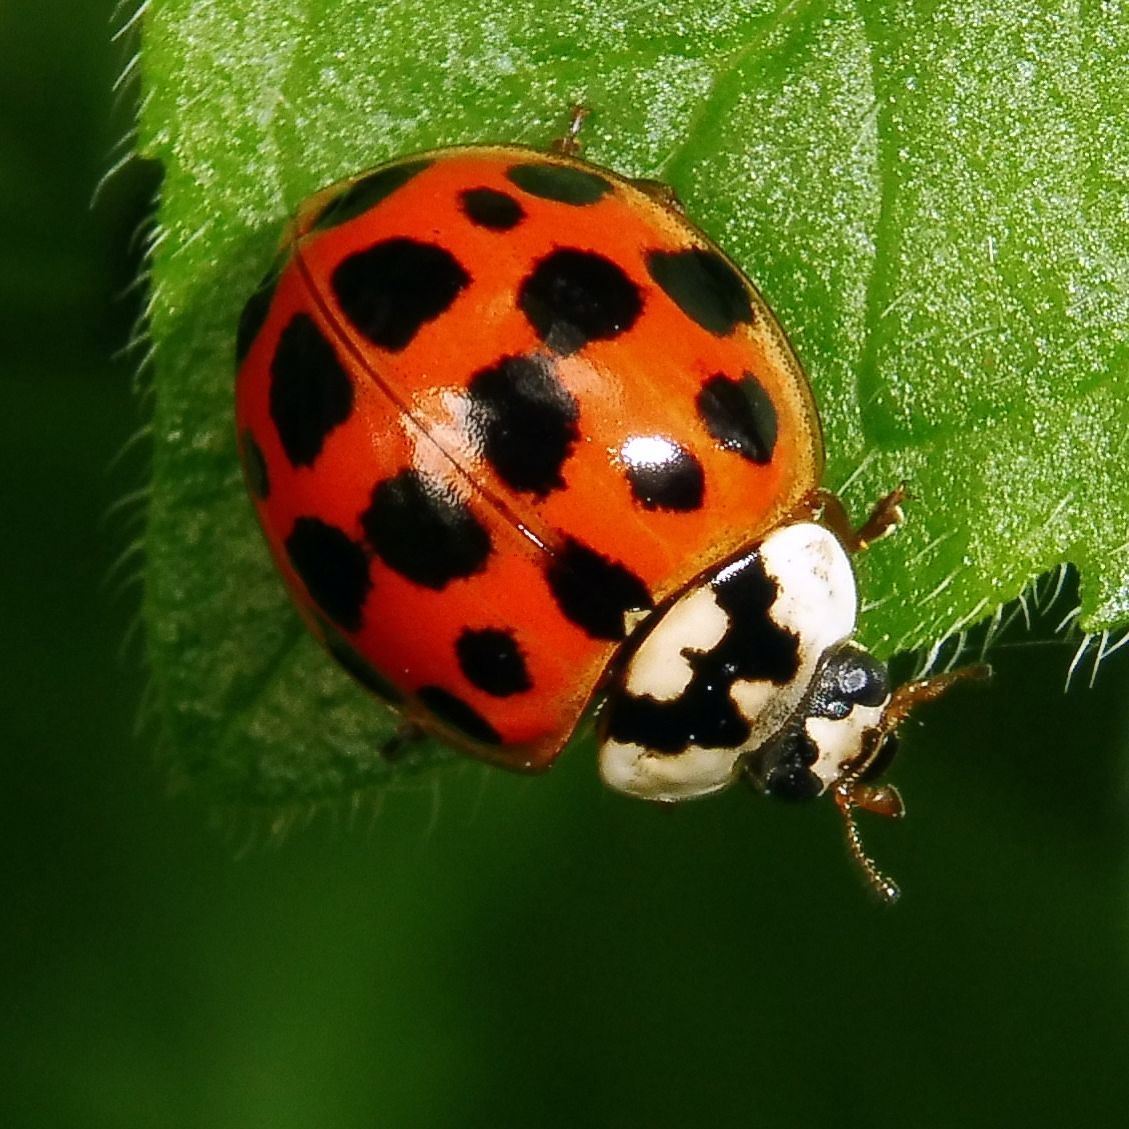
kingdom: Animalia
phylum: Arthropoda
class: Insecta
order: Coleoptera
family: Coccinellidae
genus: Harmonia
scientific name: Harmonia axyridis
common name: Harlequin ladybird
